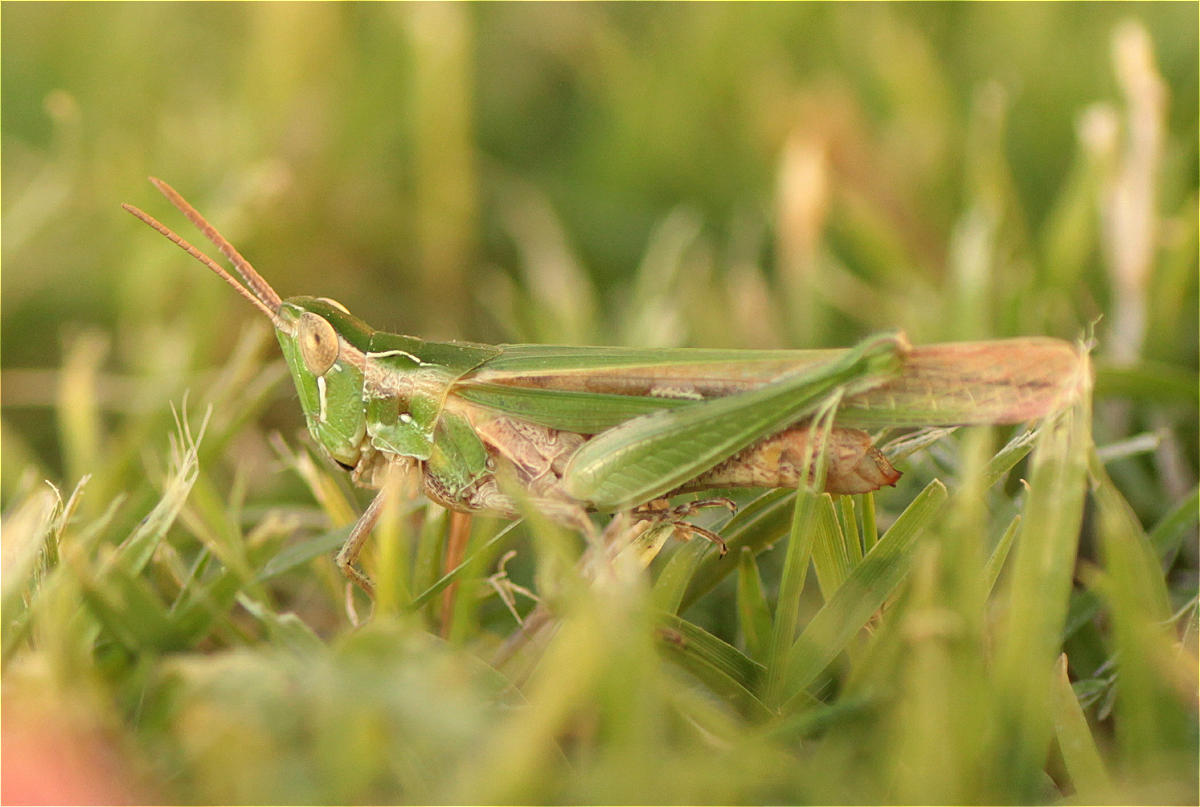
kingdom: Animalia
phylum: Arthropoda
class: Insecta
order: Orthoptera
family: Acrididae
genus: Calephorus
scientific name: Calephorus compressicornis
